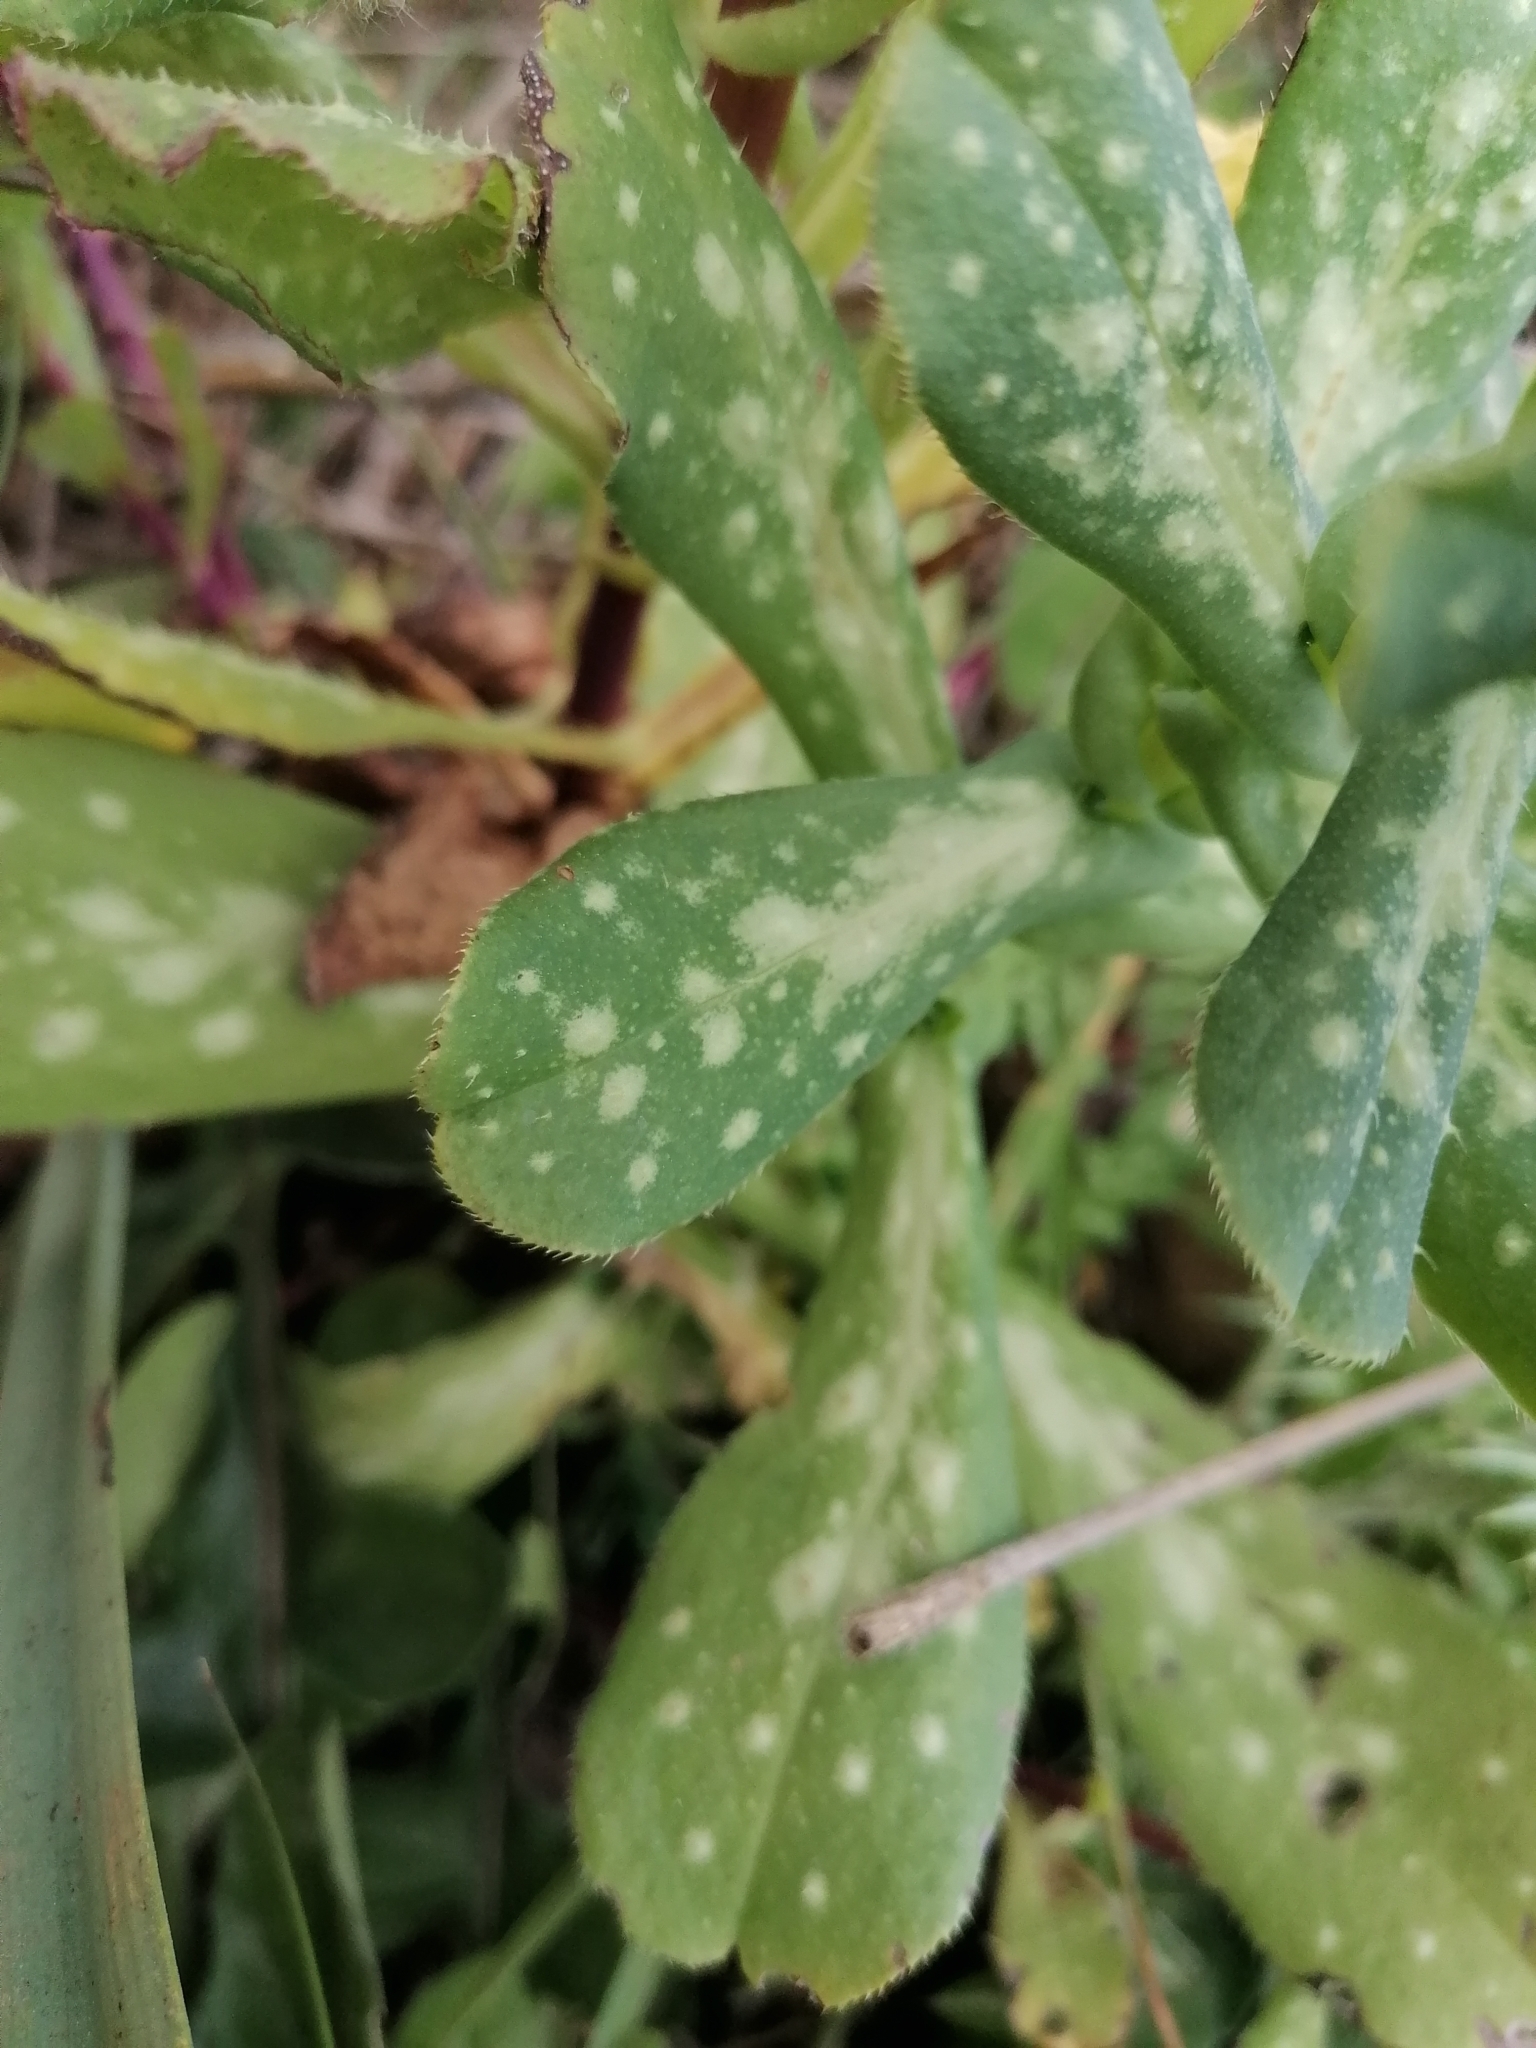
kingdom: Plantae
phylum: Tracheophyta
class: Magnoliopsida
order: Boraginales
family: Boraginaceae
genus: Cerinthe
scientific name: Cerinthe major
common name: Greater honeywort
